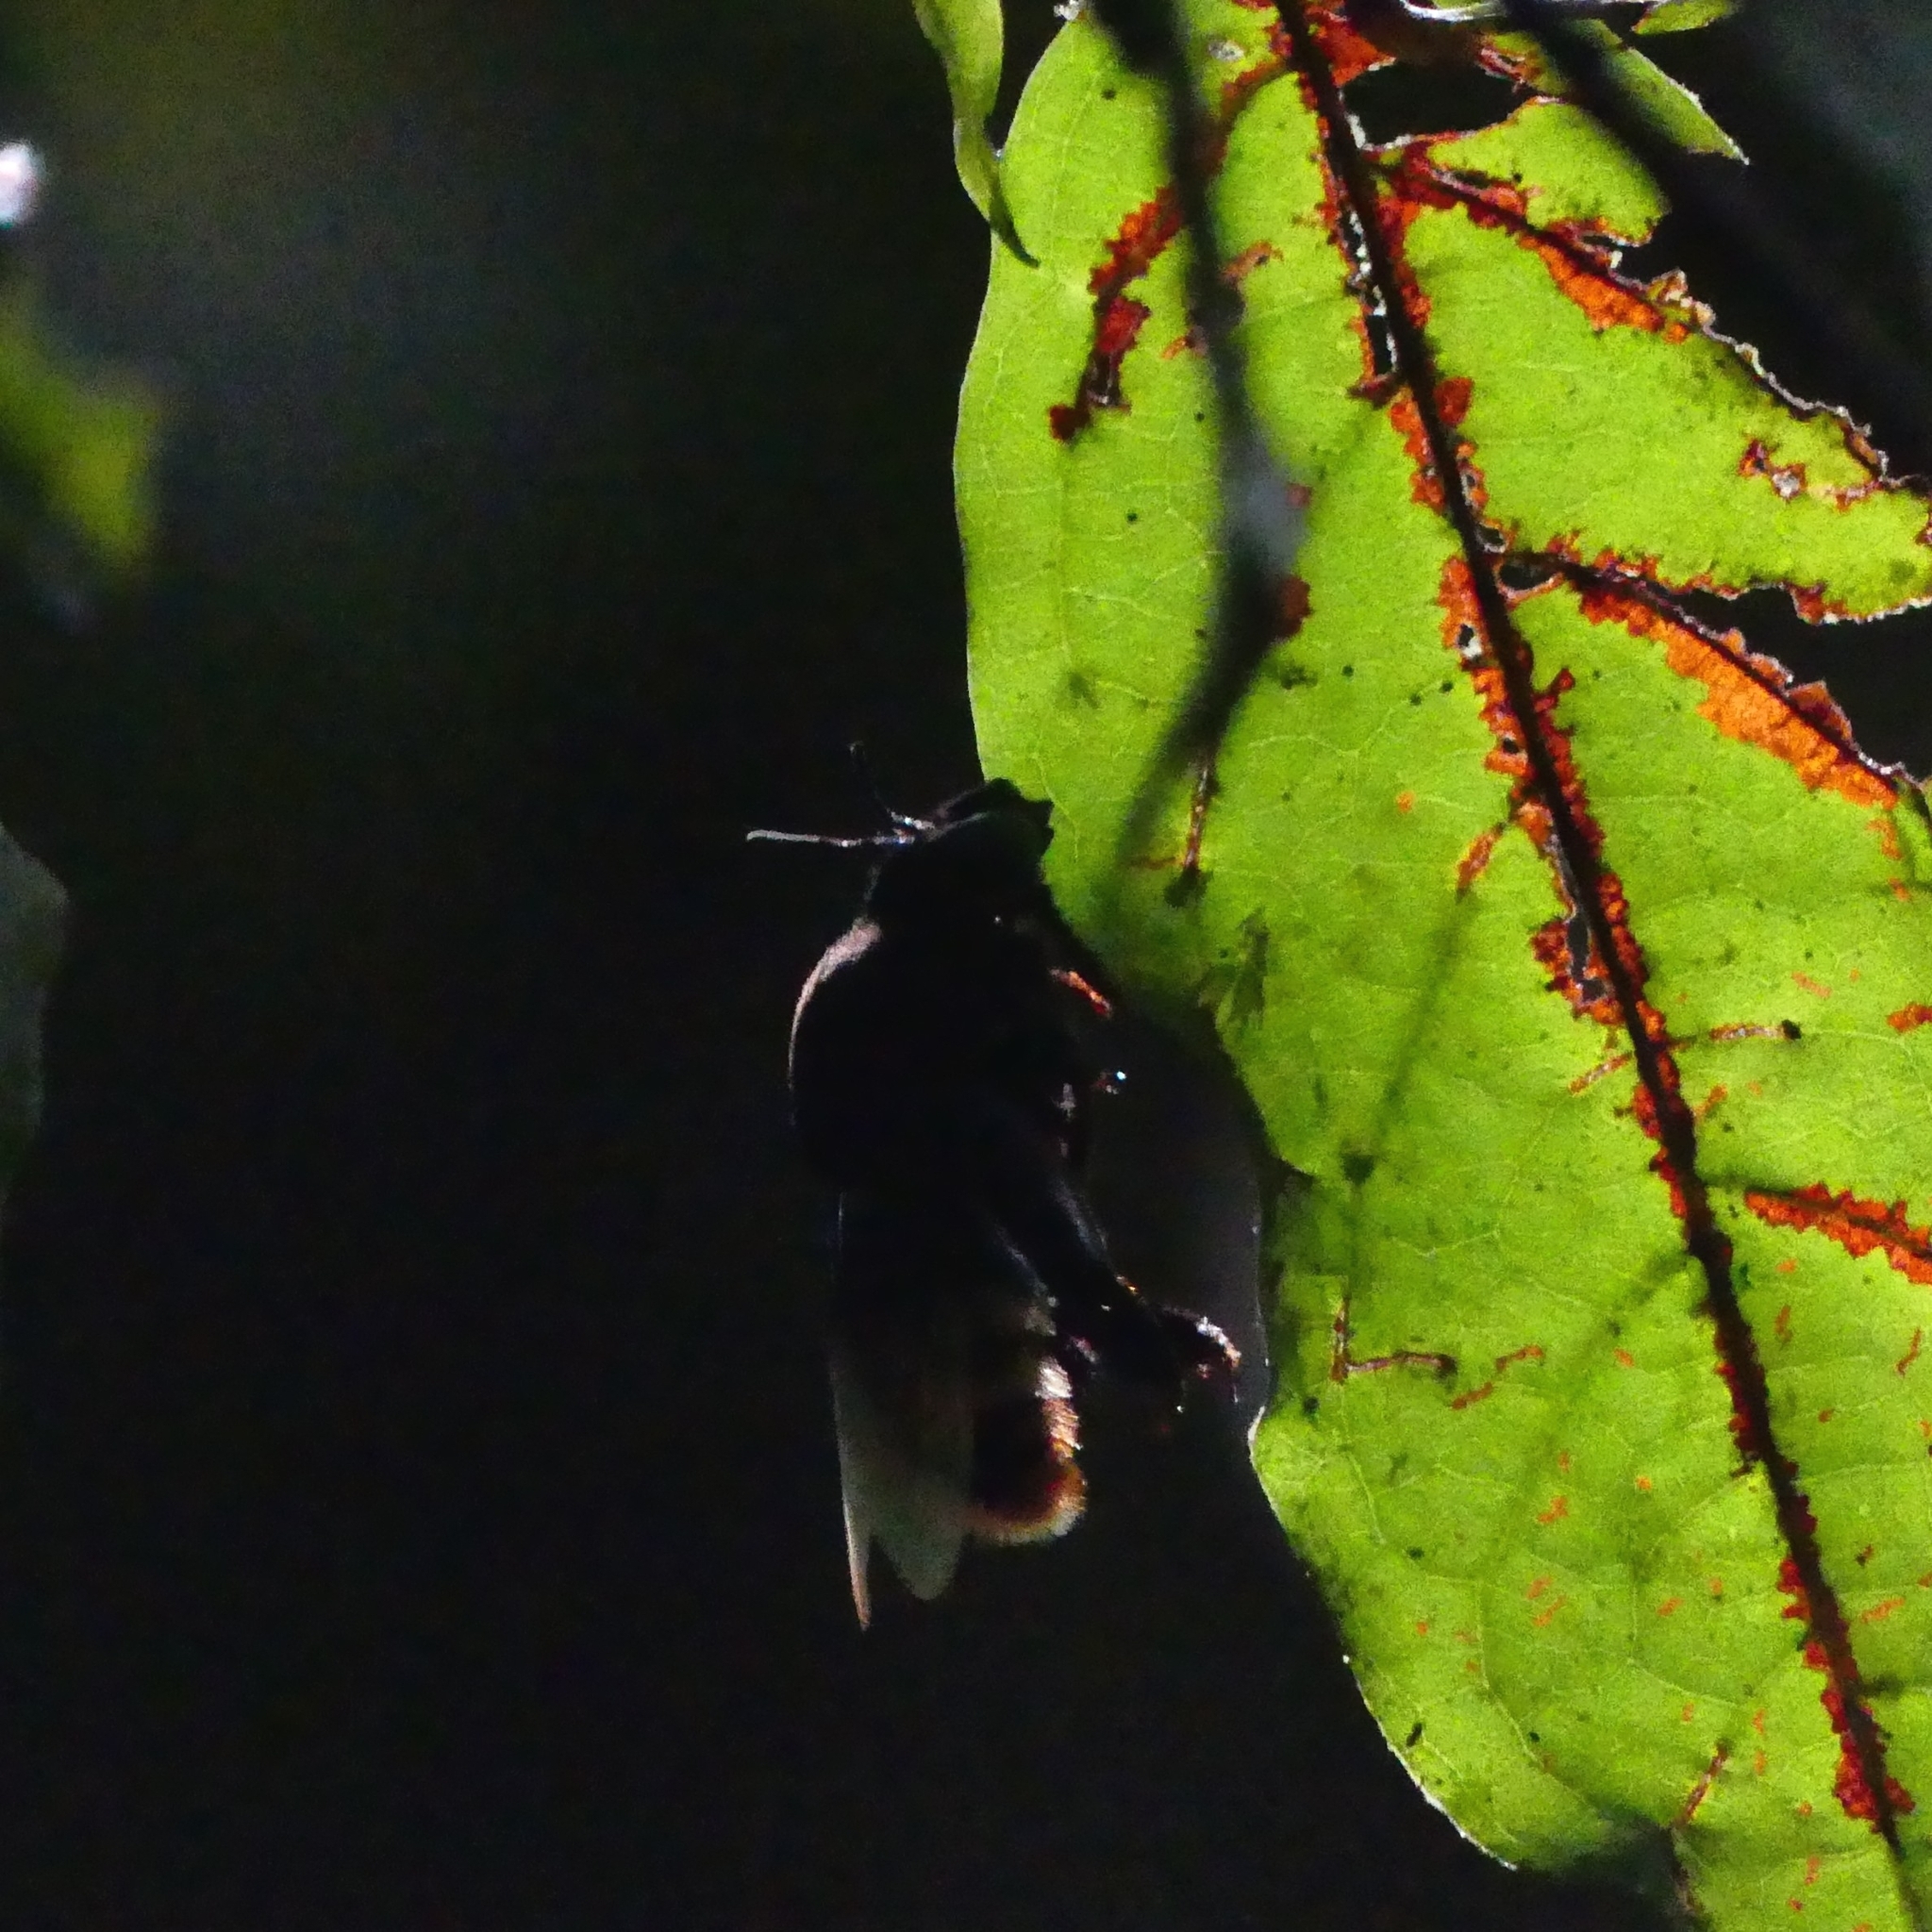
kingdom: Animalia
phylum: Arthropoda
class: Insecta
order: Hymenoptera
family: Apidae
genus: Eulaema
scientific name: Eulaema
